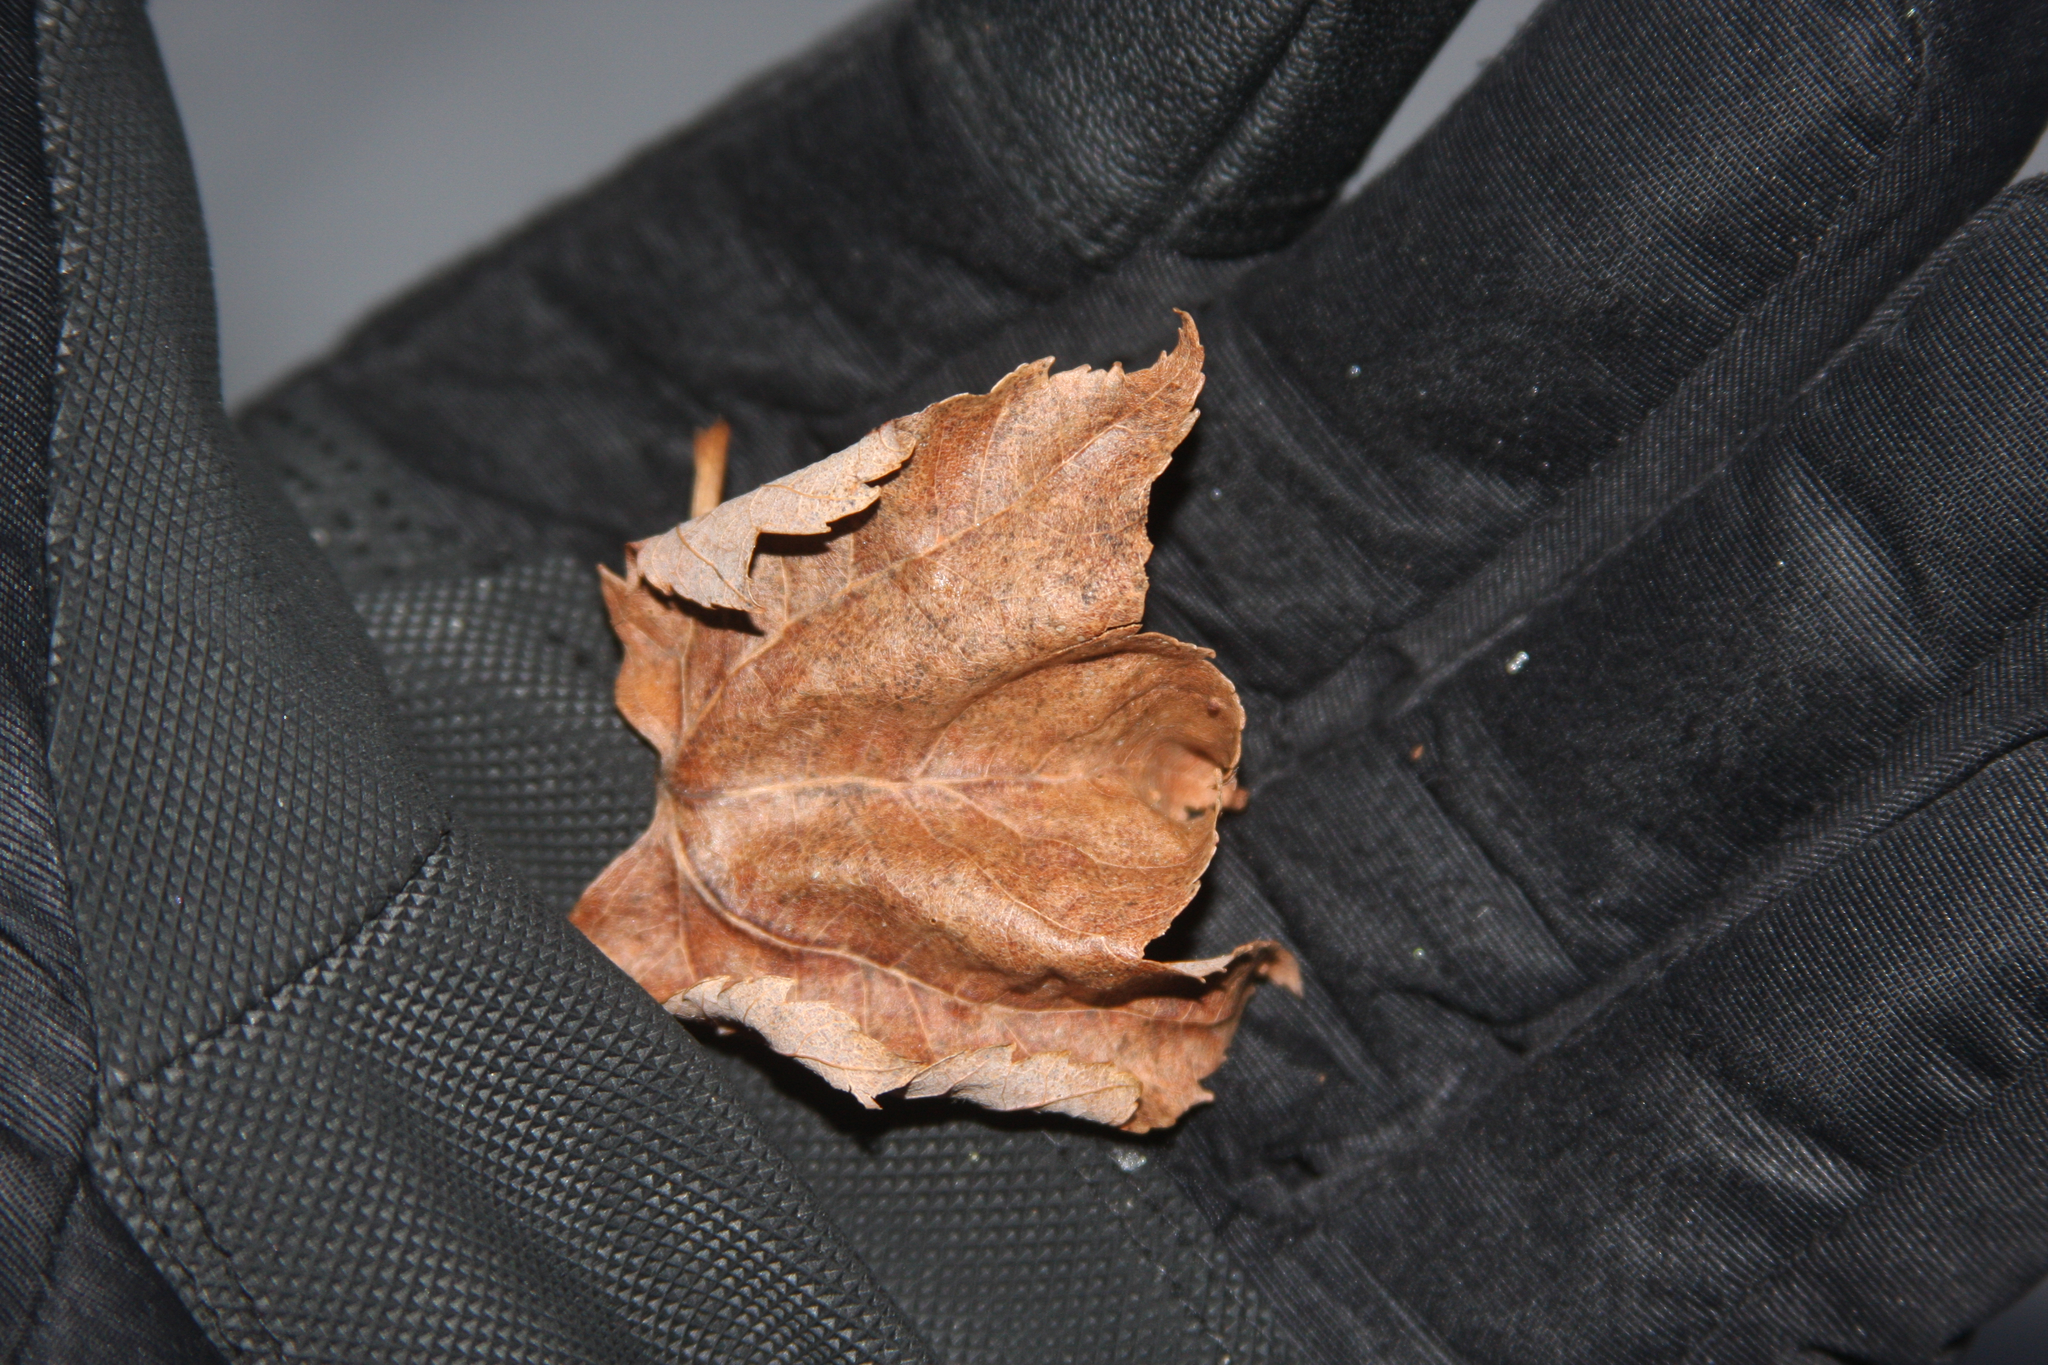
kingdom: Plantae
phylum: Tracheophyta
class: Magnoliopsida
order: Sapindales
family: Sapindaceae
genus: Acer
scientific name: Acer rubrum
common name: Red maple
